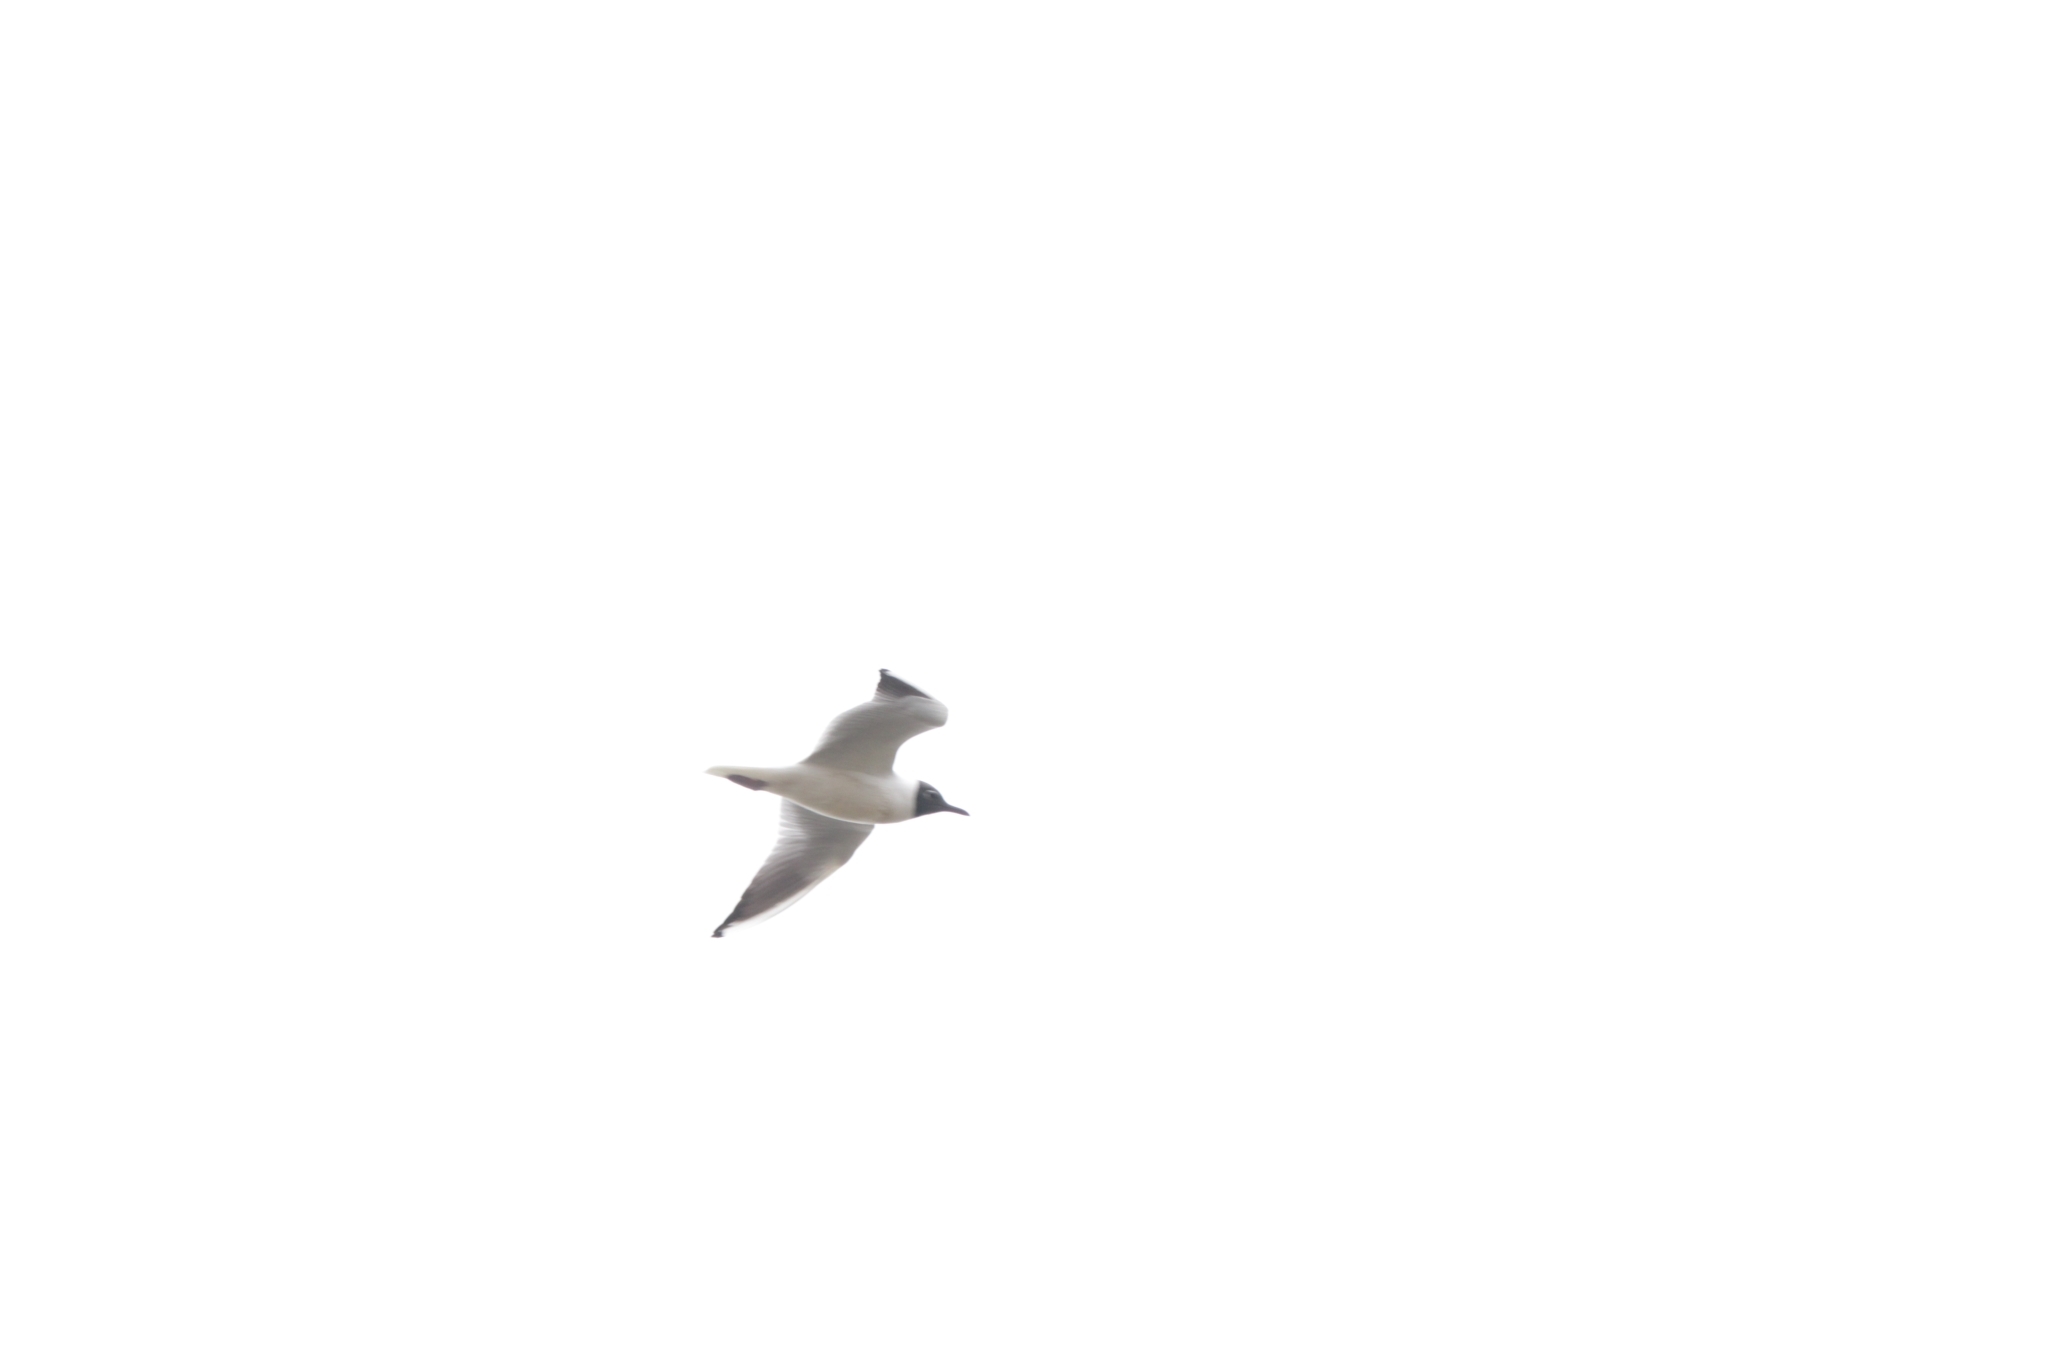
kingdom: Animalia
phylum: Chordata
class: Aves
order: Charadriiformes
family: Laridae
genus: Chroicocephalus
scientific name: Chroicocephalus ridibundus
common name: Black-headed gull
